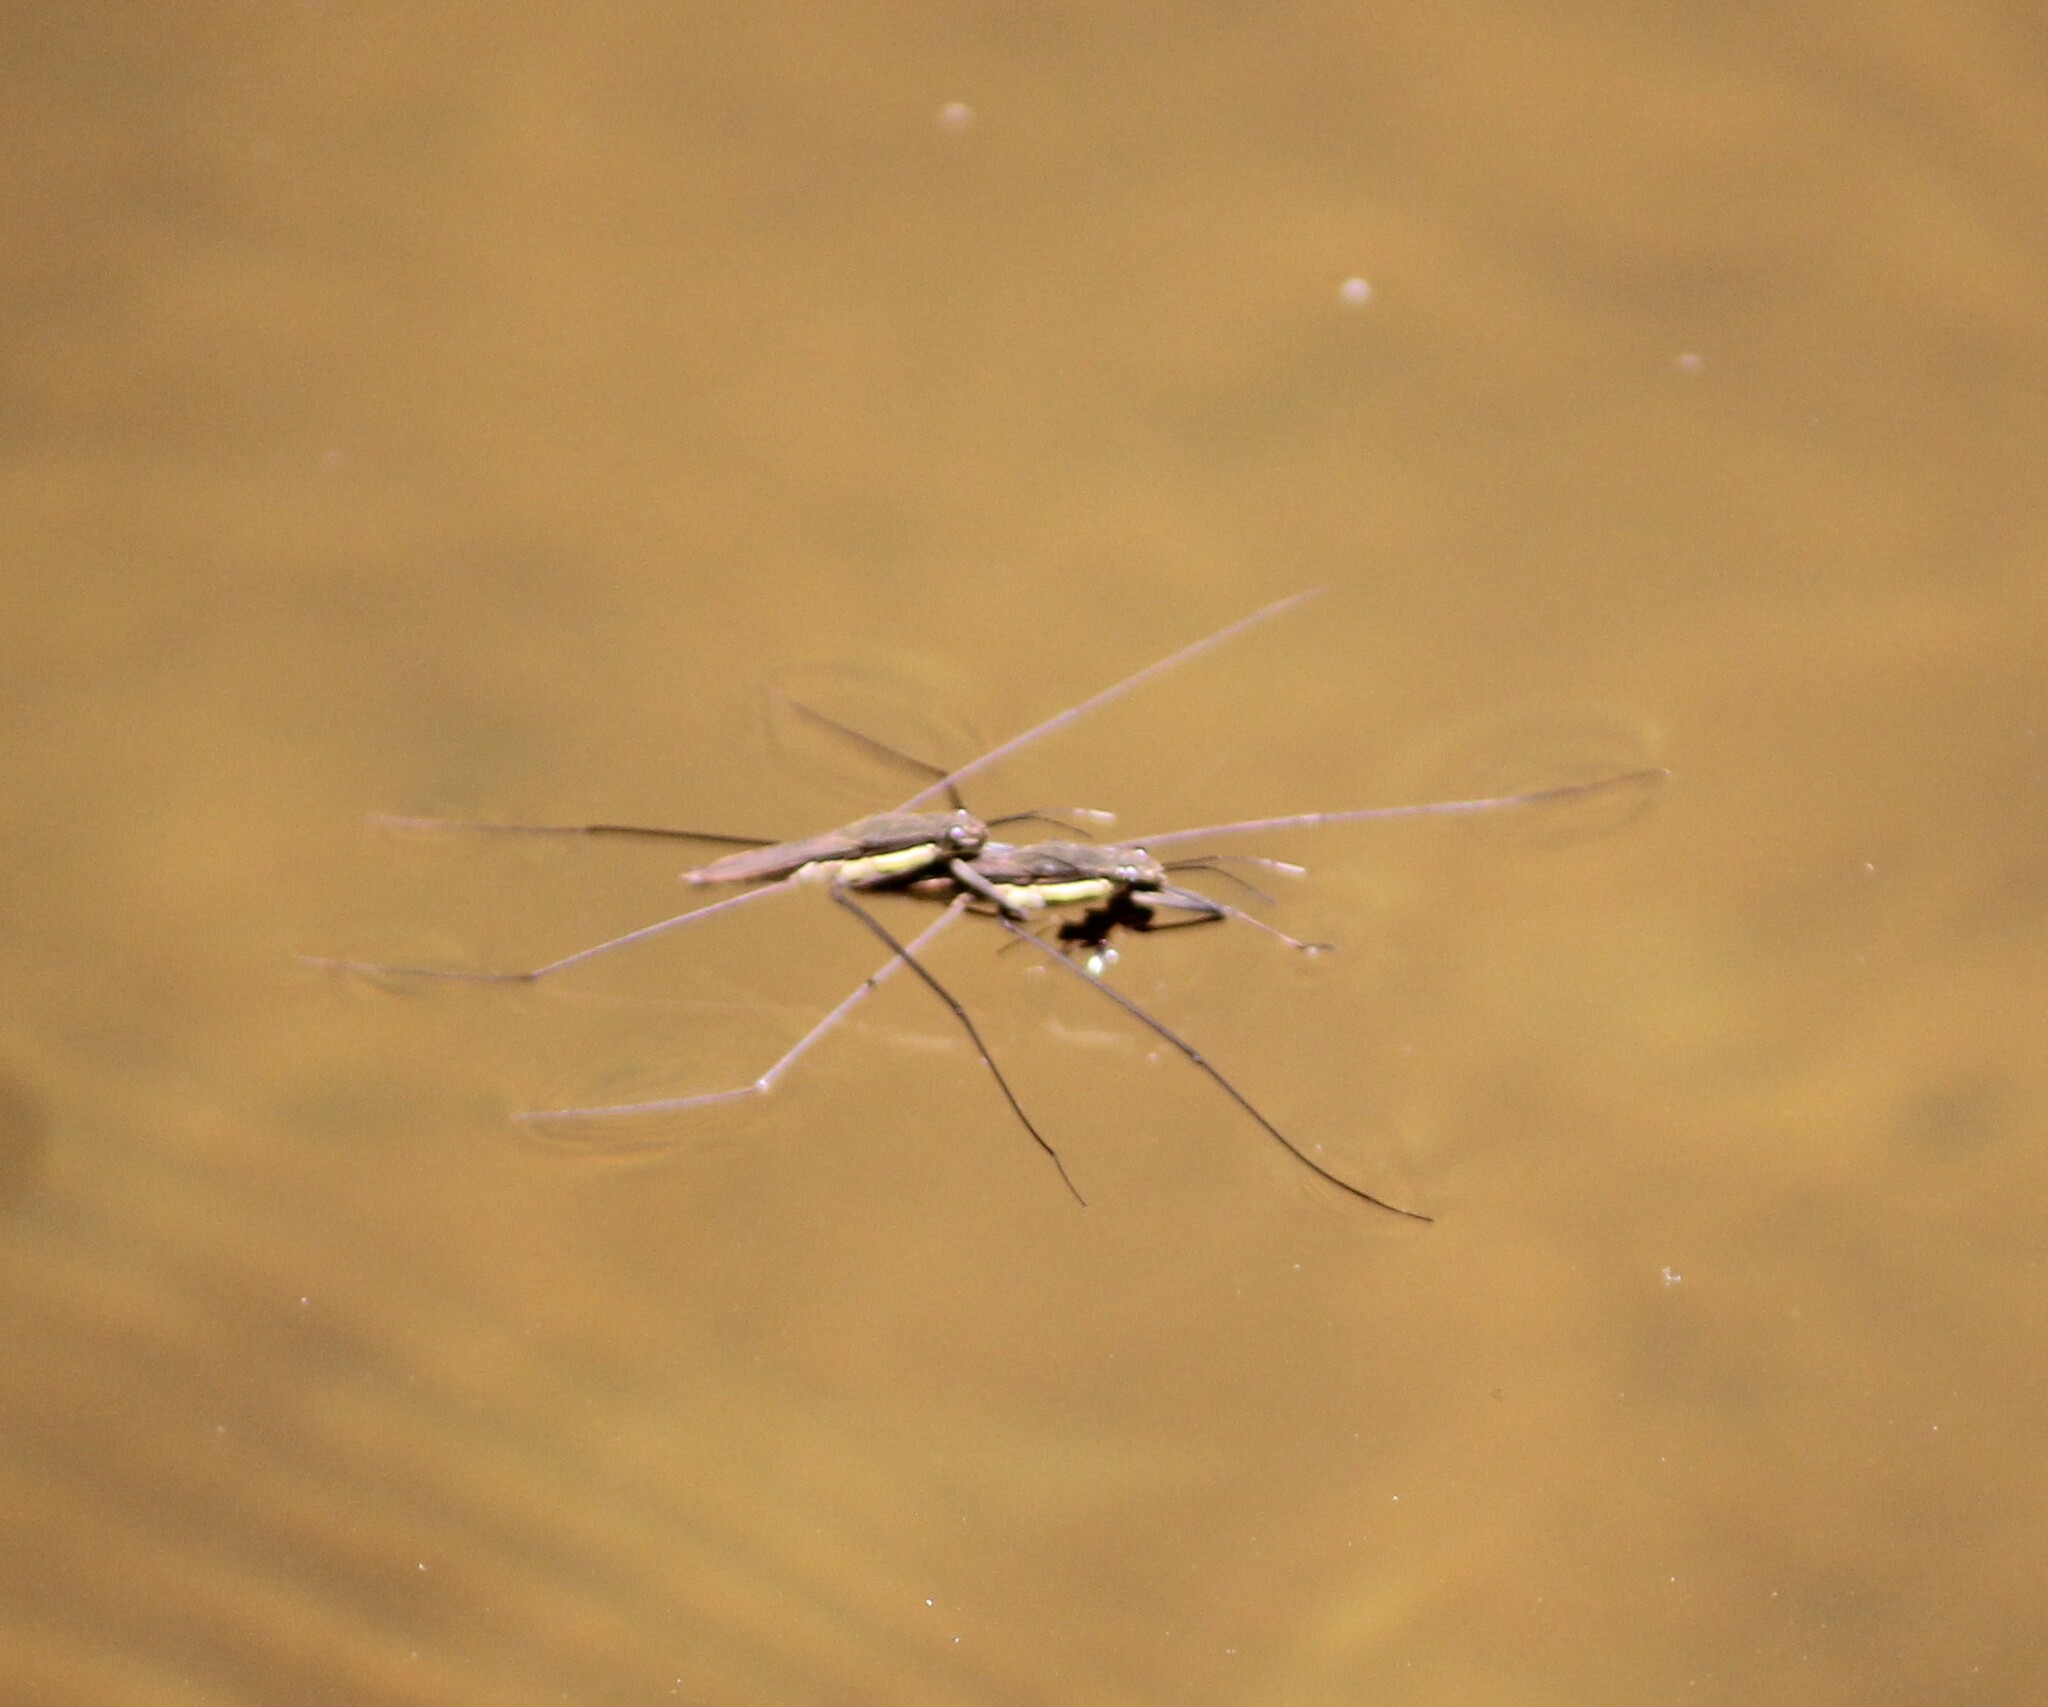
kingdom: Animalia
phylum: Arthropoda
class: Insecta
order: Hemiptera
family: Gerridae
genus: Aquarius
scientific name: Aquarius conformis
